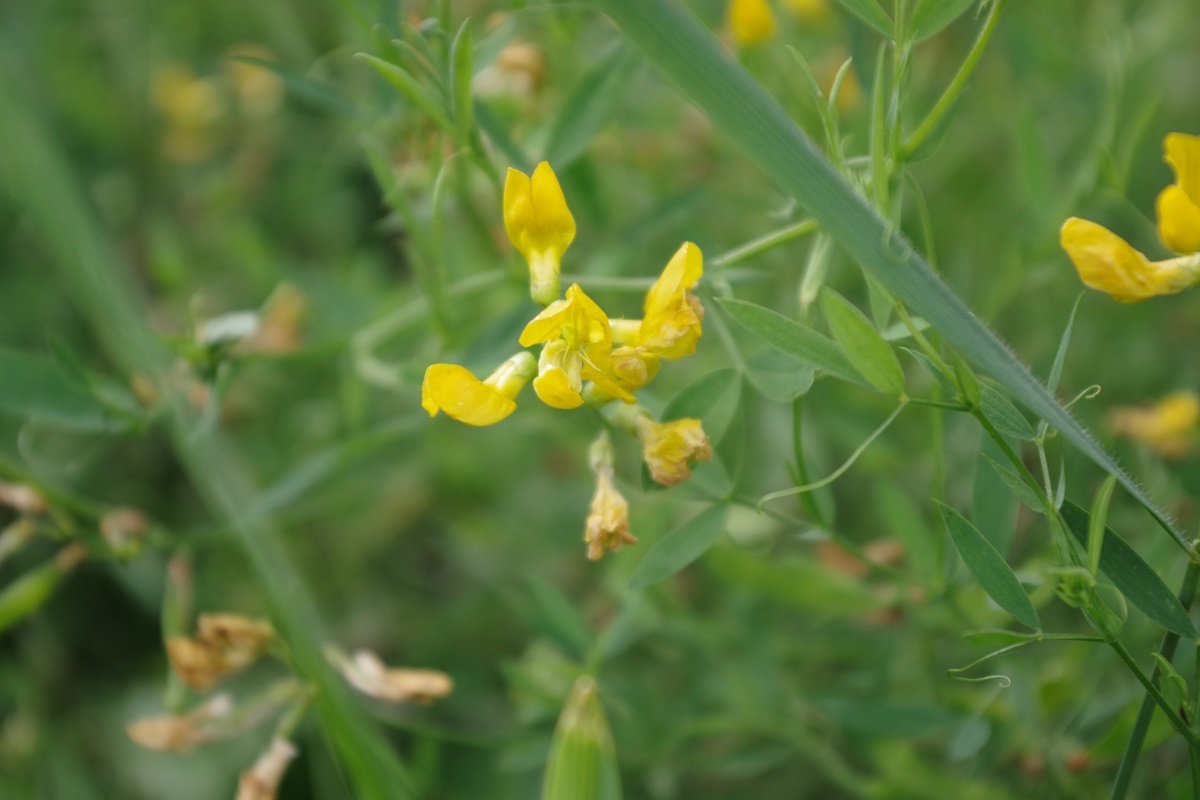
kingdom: Plantae
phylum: Tracheophyta
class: Magnoliopsida
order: Fabales
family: Fabaceae
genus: Lathyrus
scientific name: Lathyrus pratensis
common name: Meadow vetchling
